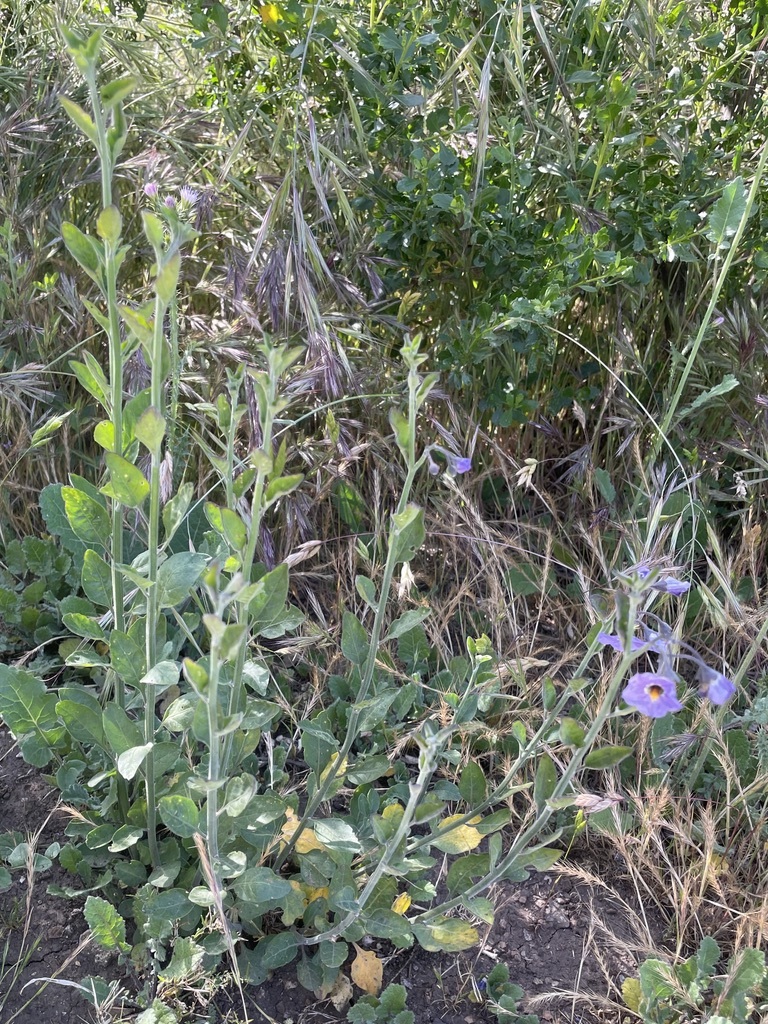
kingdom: Plantae
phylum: Tracheophyta
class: Magnoliopsida
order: Solanales
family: Solanaceae
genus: Solanum
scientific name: Solanum umbelliferum
